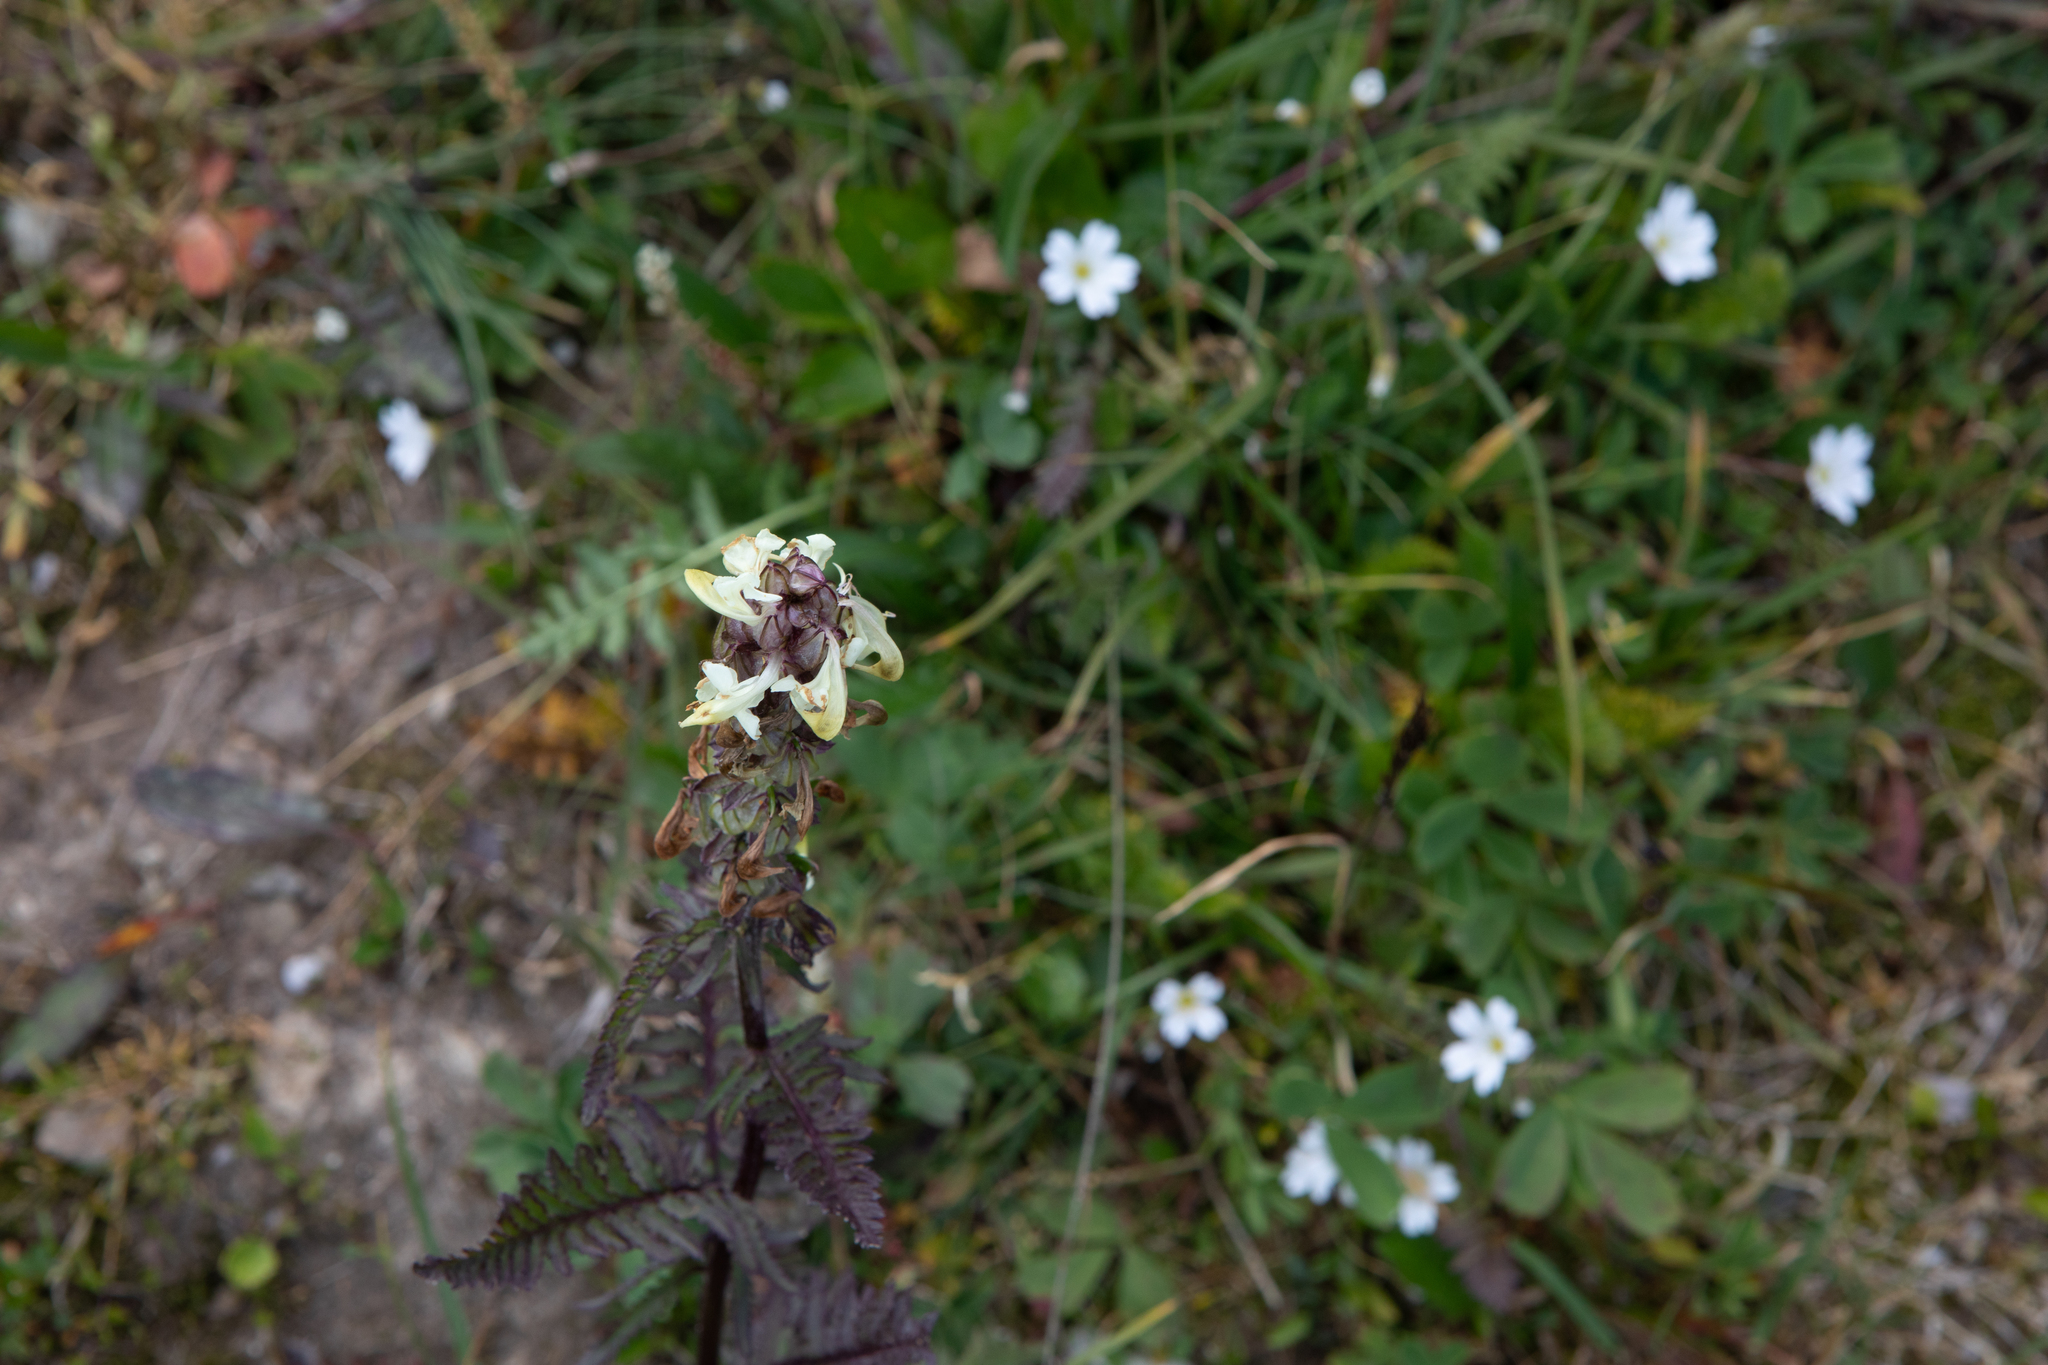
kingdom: Plantae
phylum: Tracheophyta
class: Magnoliopsida
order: Lamiales
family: Orobanchaceae
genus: Pedicularis
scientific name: Pedicularis compacta
